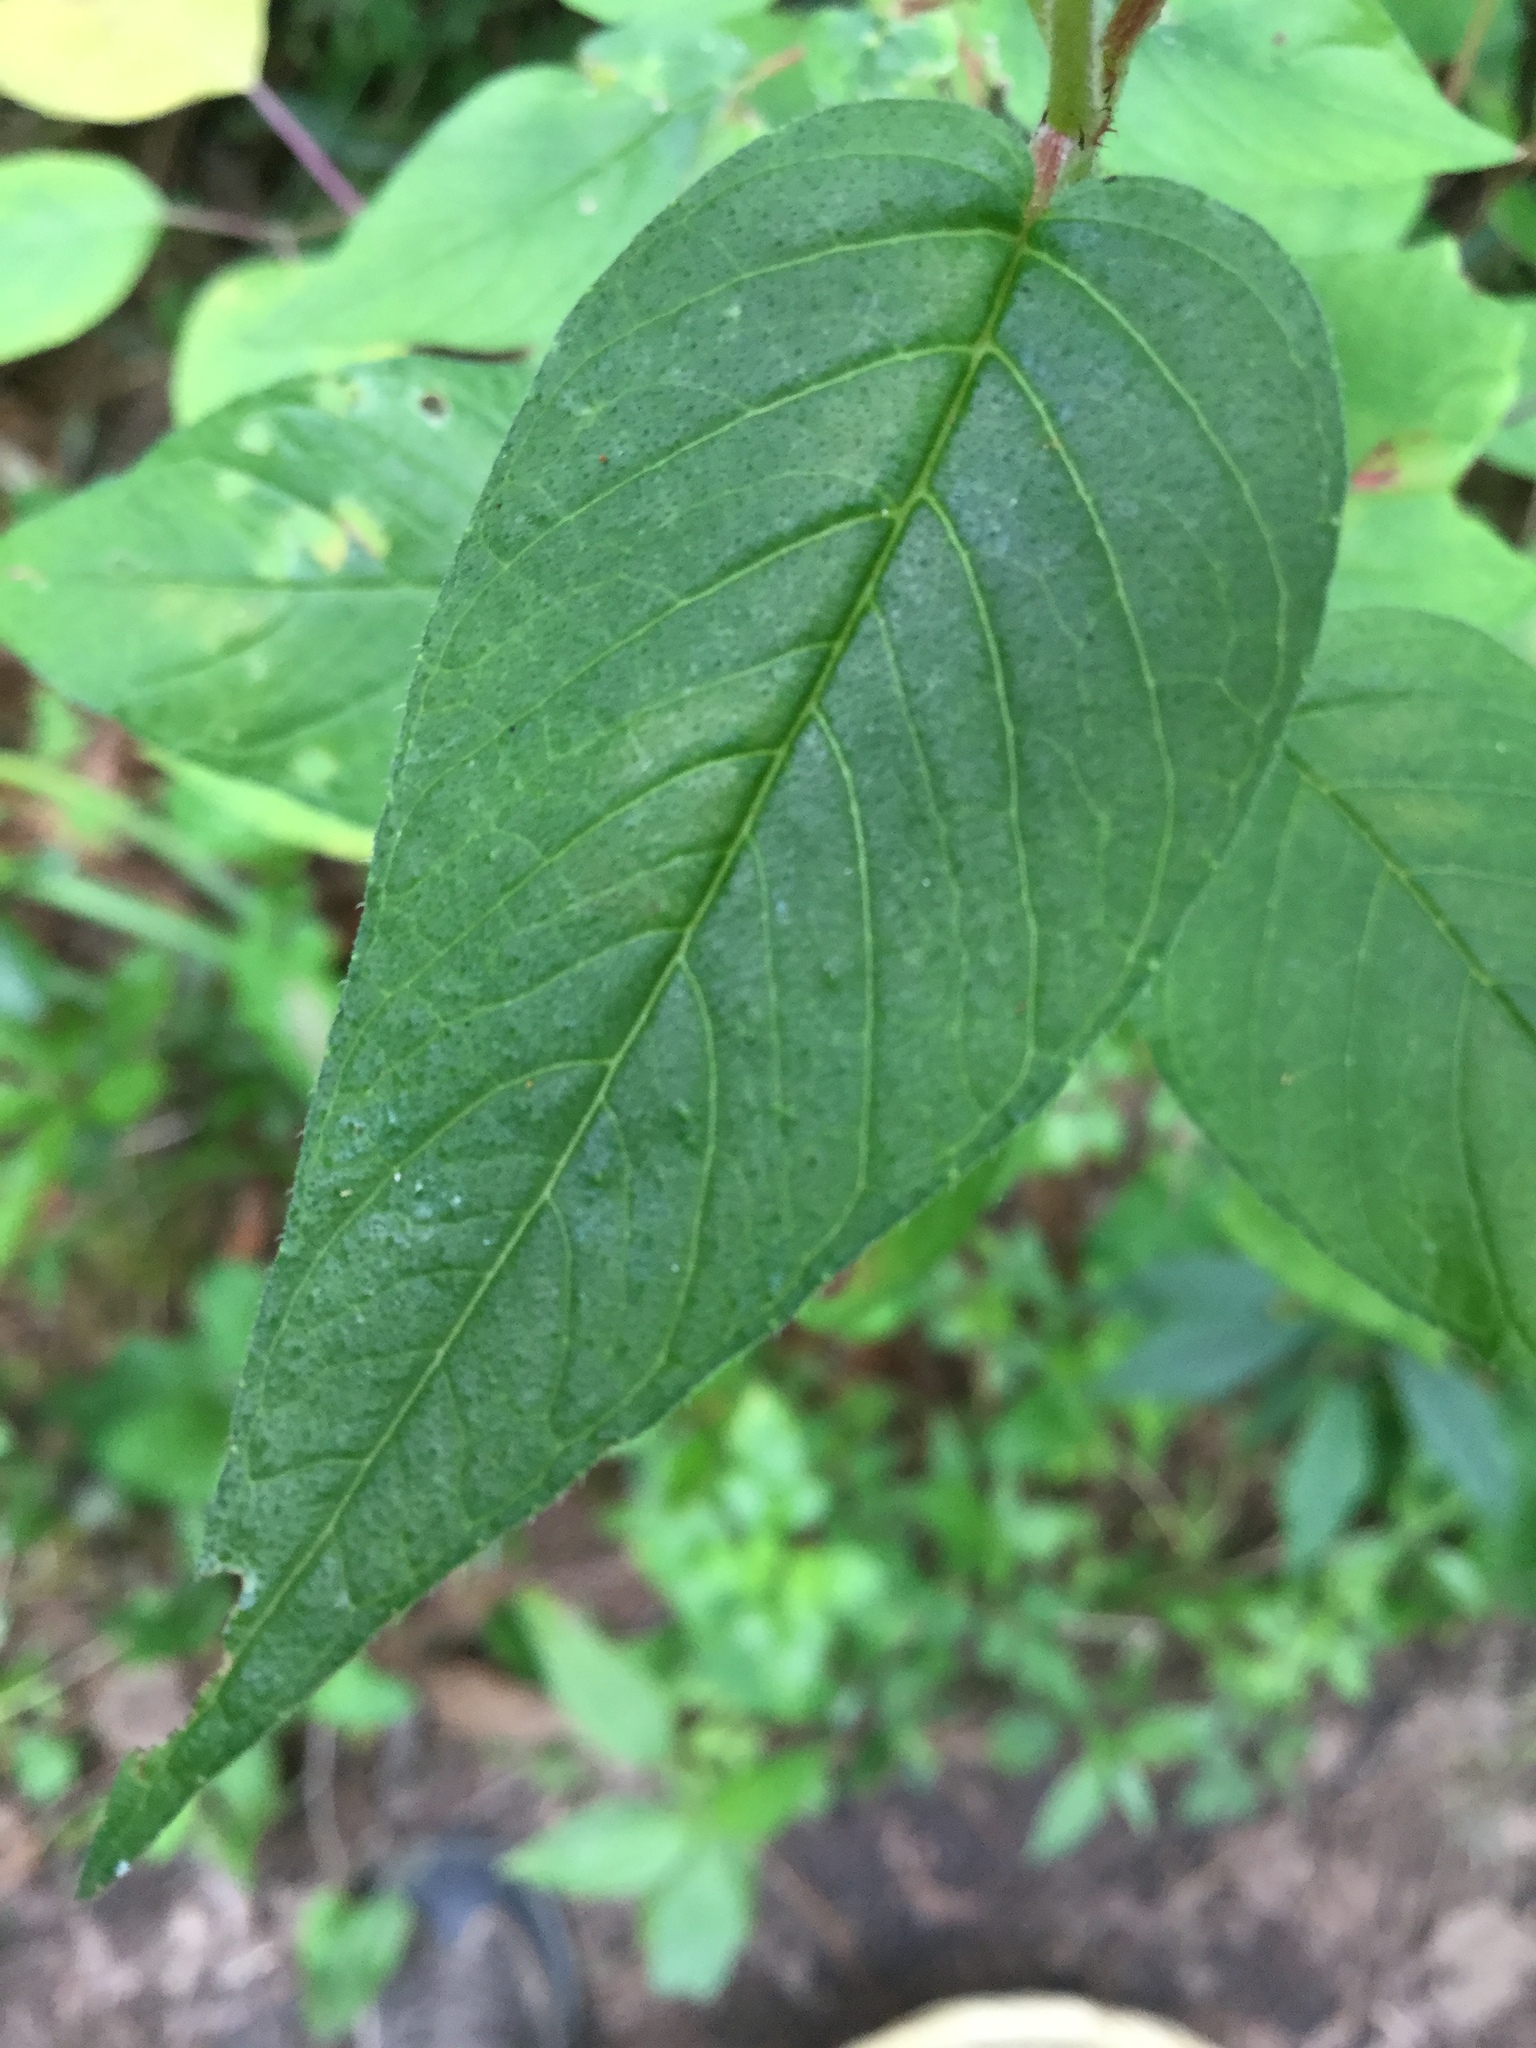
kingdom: Plantae
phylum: Tracheophyta
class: Magnoliopsida
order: Myrtales
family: Lythraceae
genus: Cuphea
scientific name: Cuphea cyanea
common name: Black-eyed cuphea
